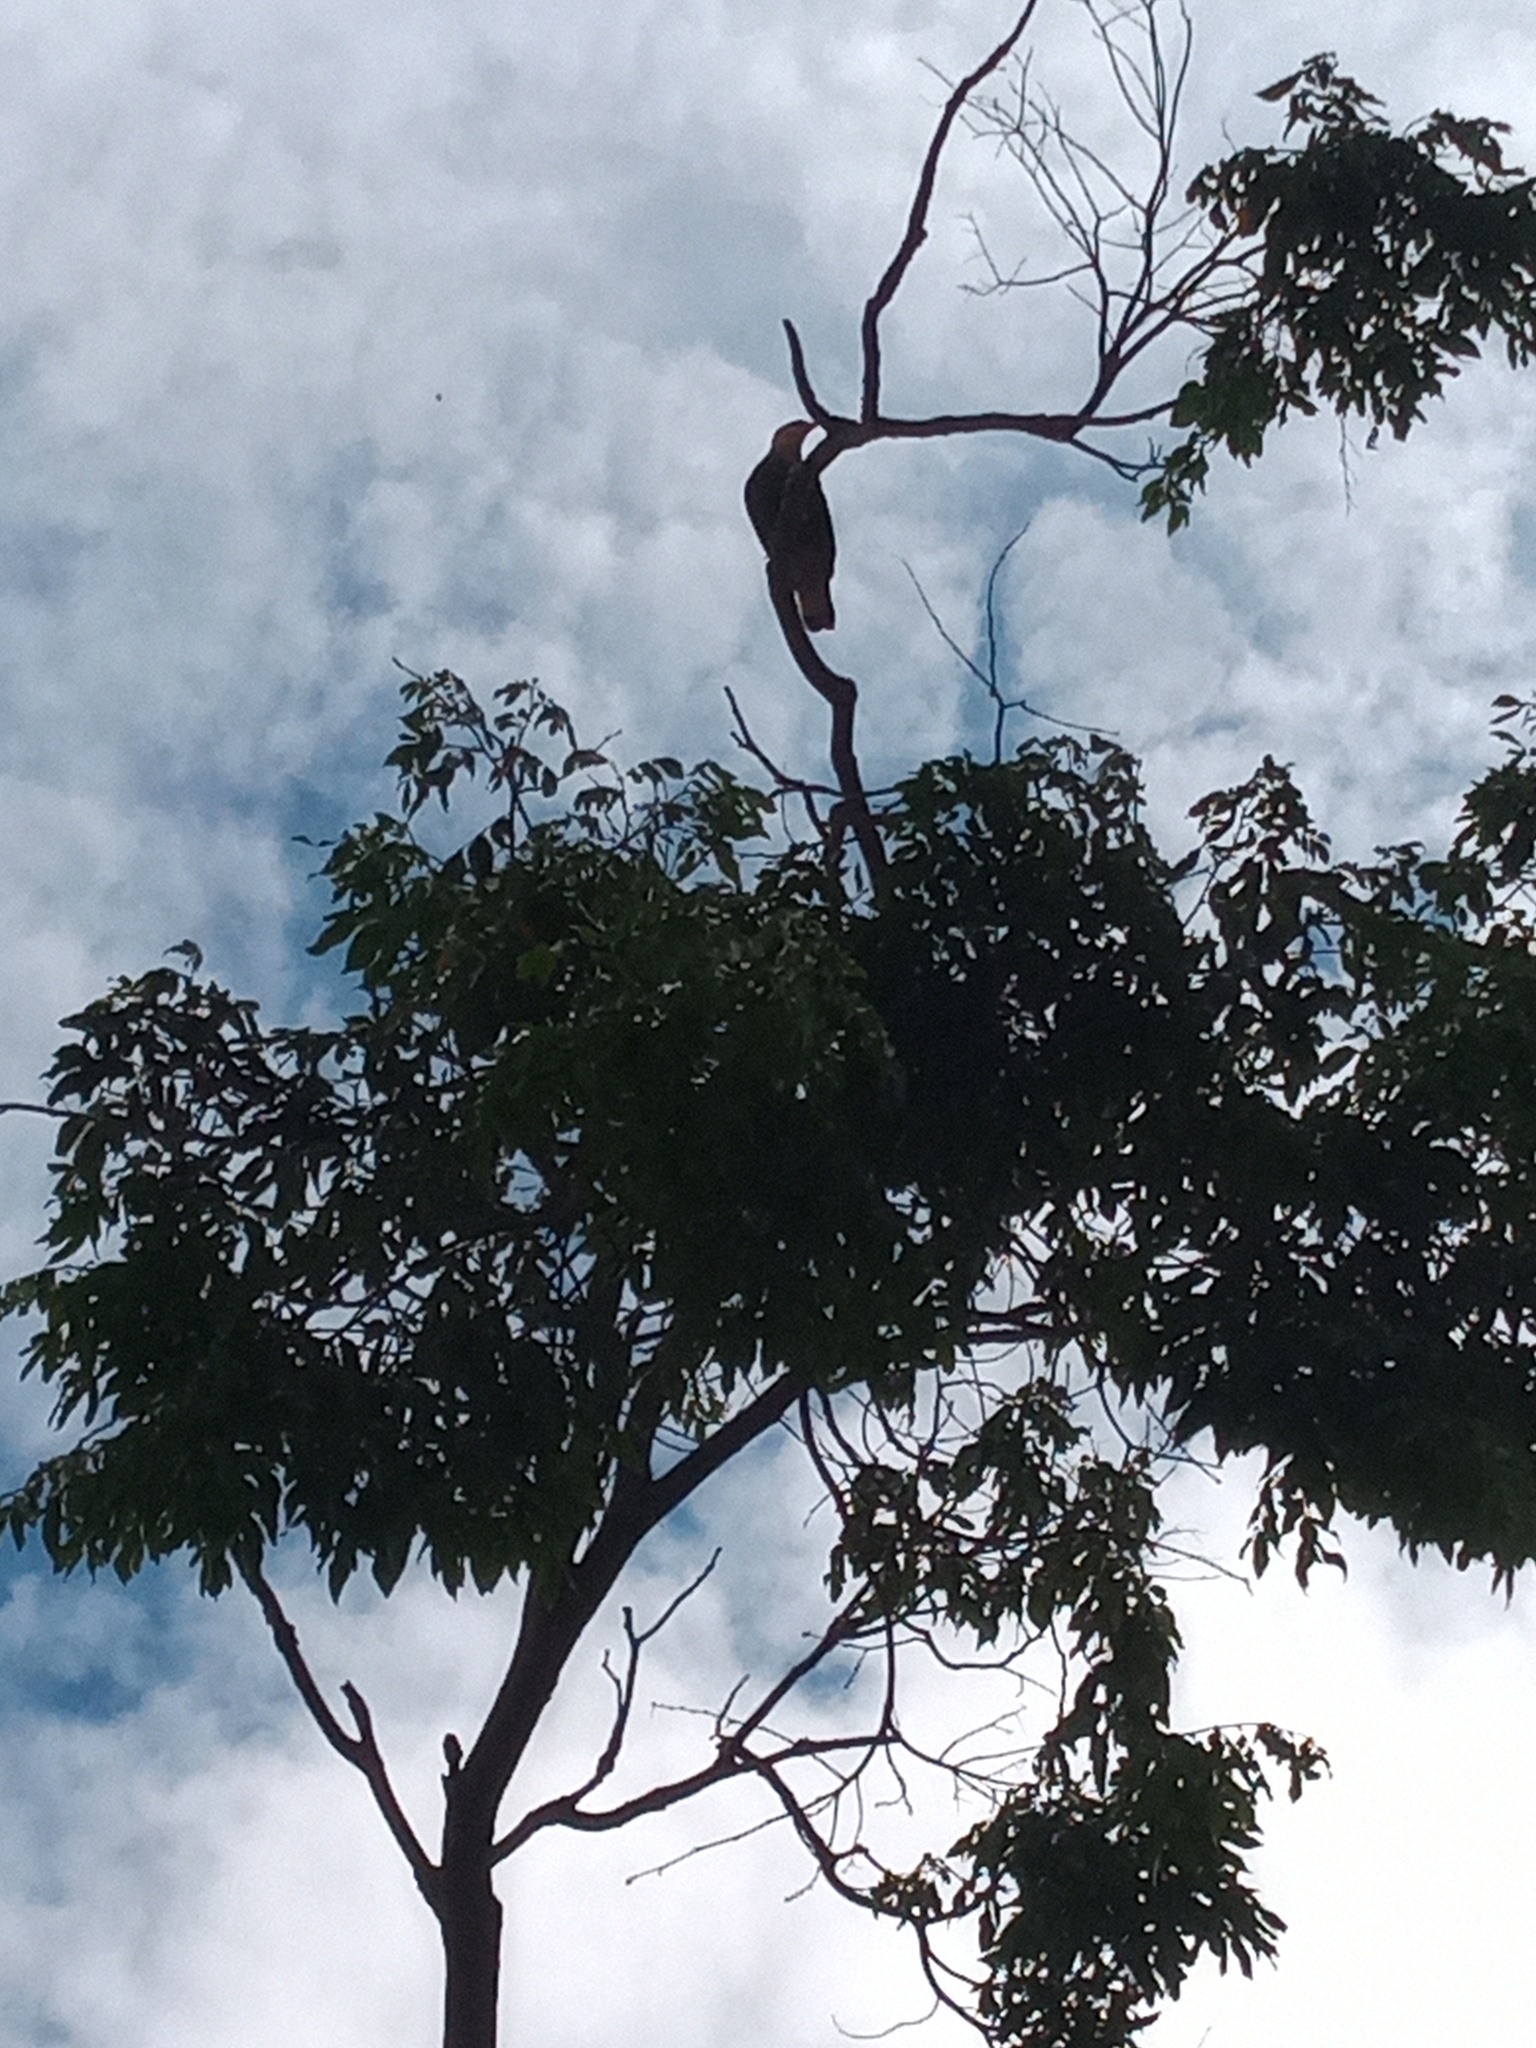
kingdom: Animalia
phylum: Chordata
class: Aves
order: Falconiformes
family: Falconidae
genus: Caracara
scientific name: Caracara plancus
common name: Southern caracara
